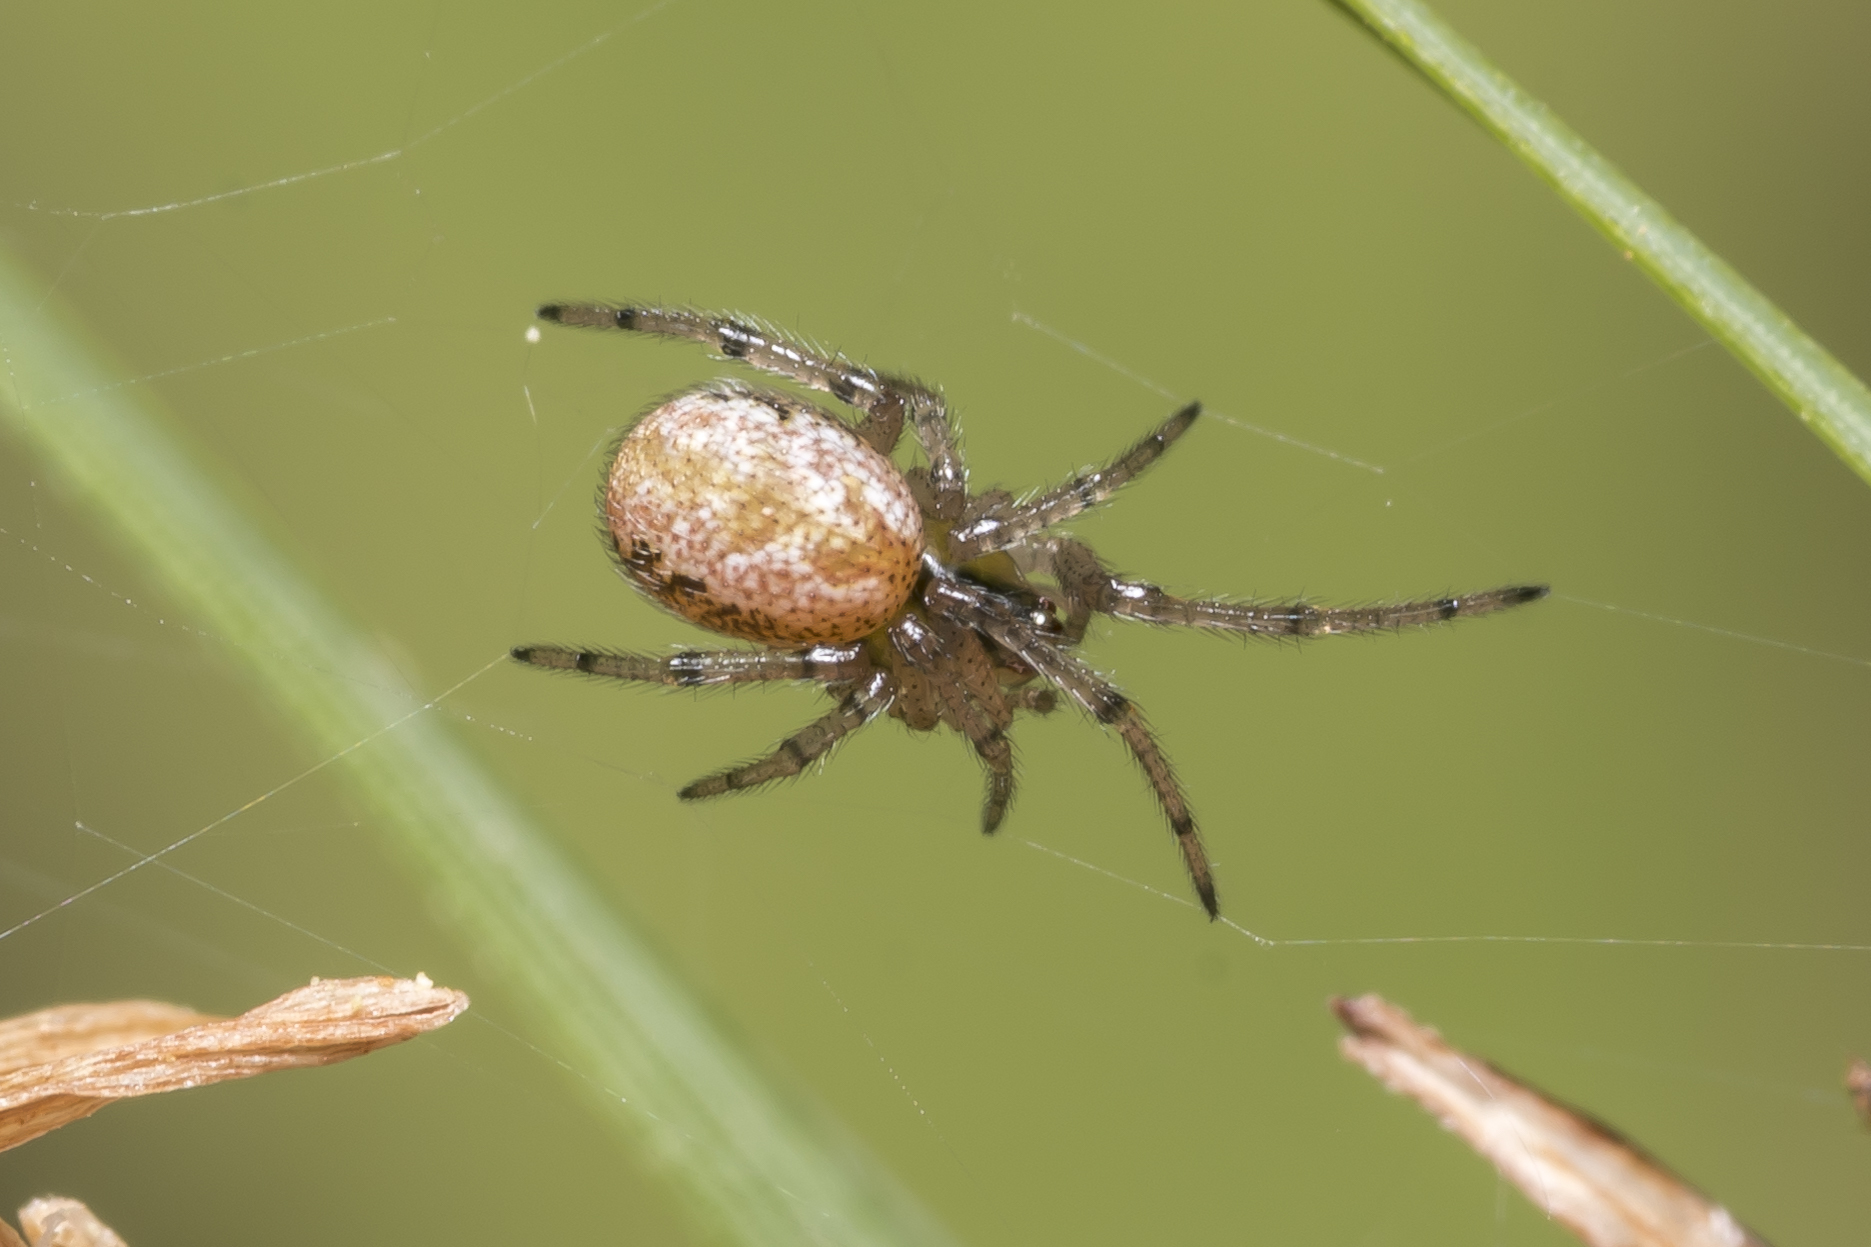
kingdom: Animalia
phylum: Arthropoda
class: Arachnida
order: Araneae
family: Theridiidae
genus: Kochiura
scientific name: Kochiura aulica
